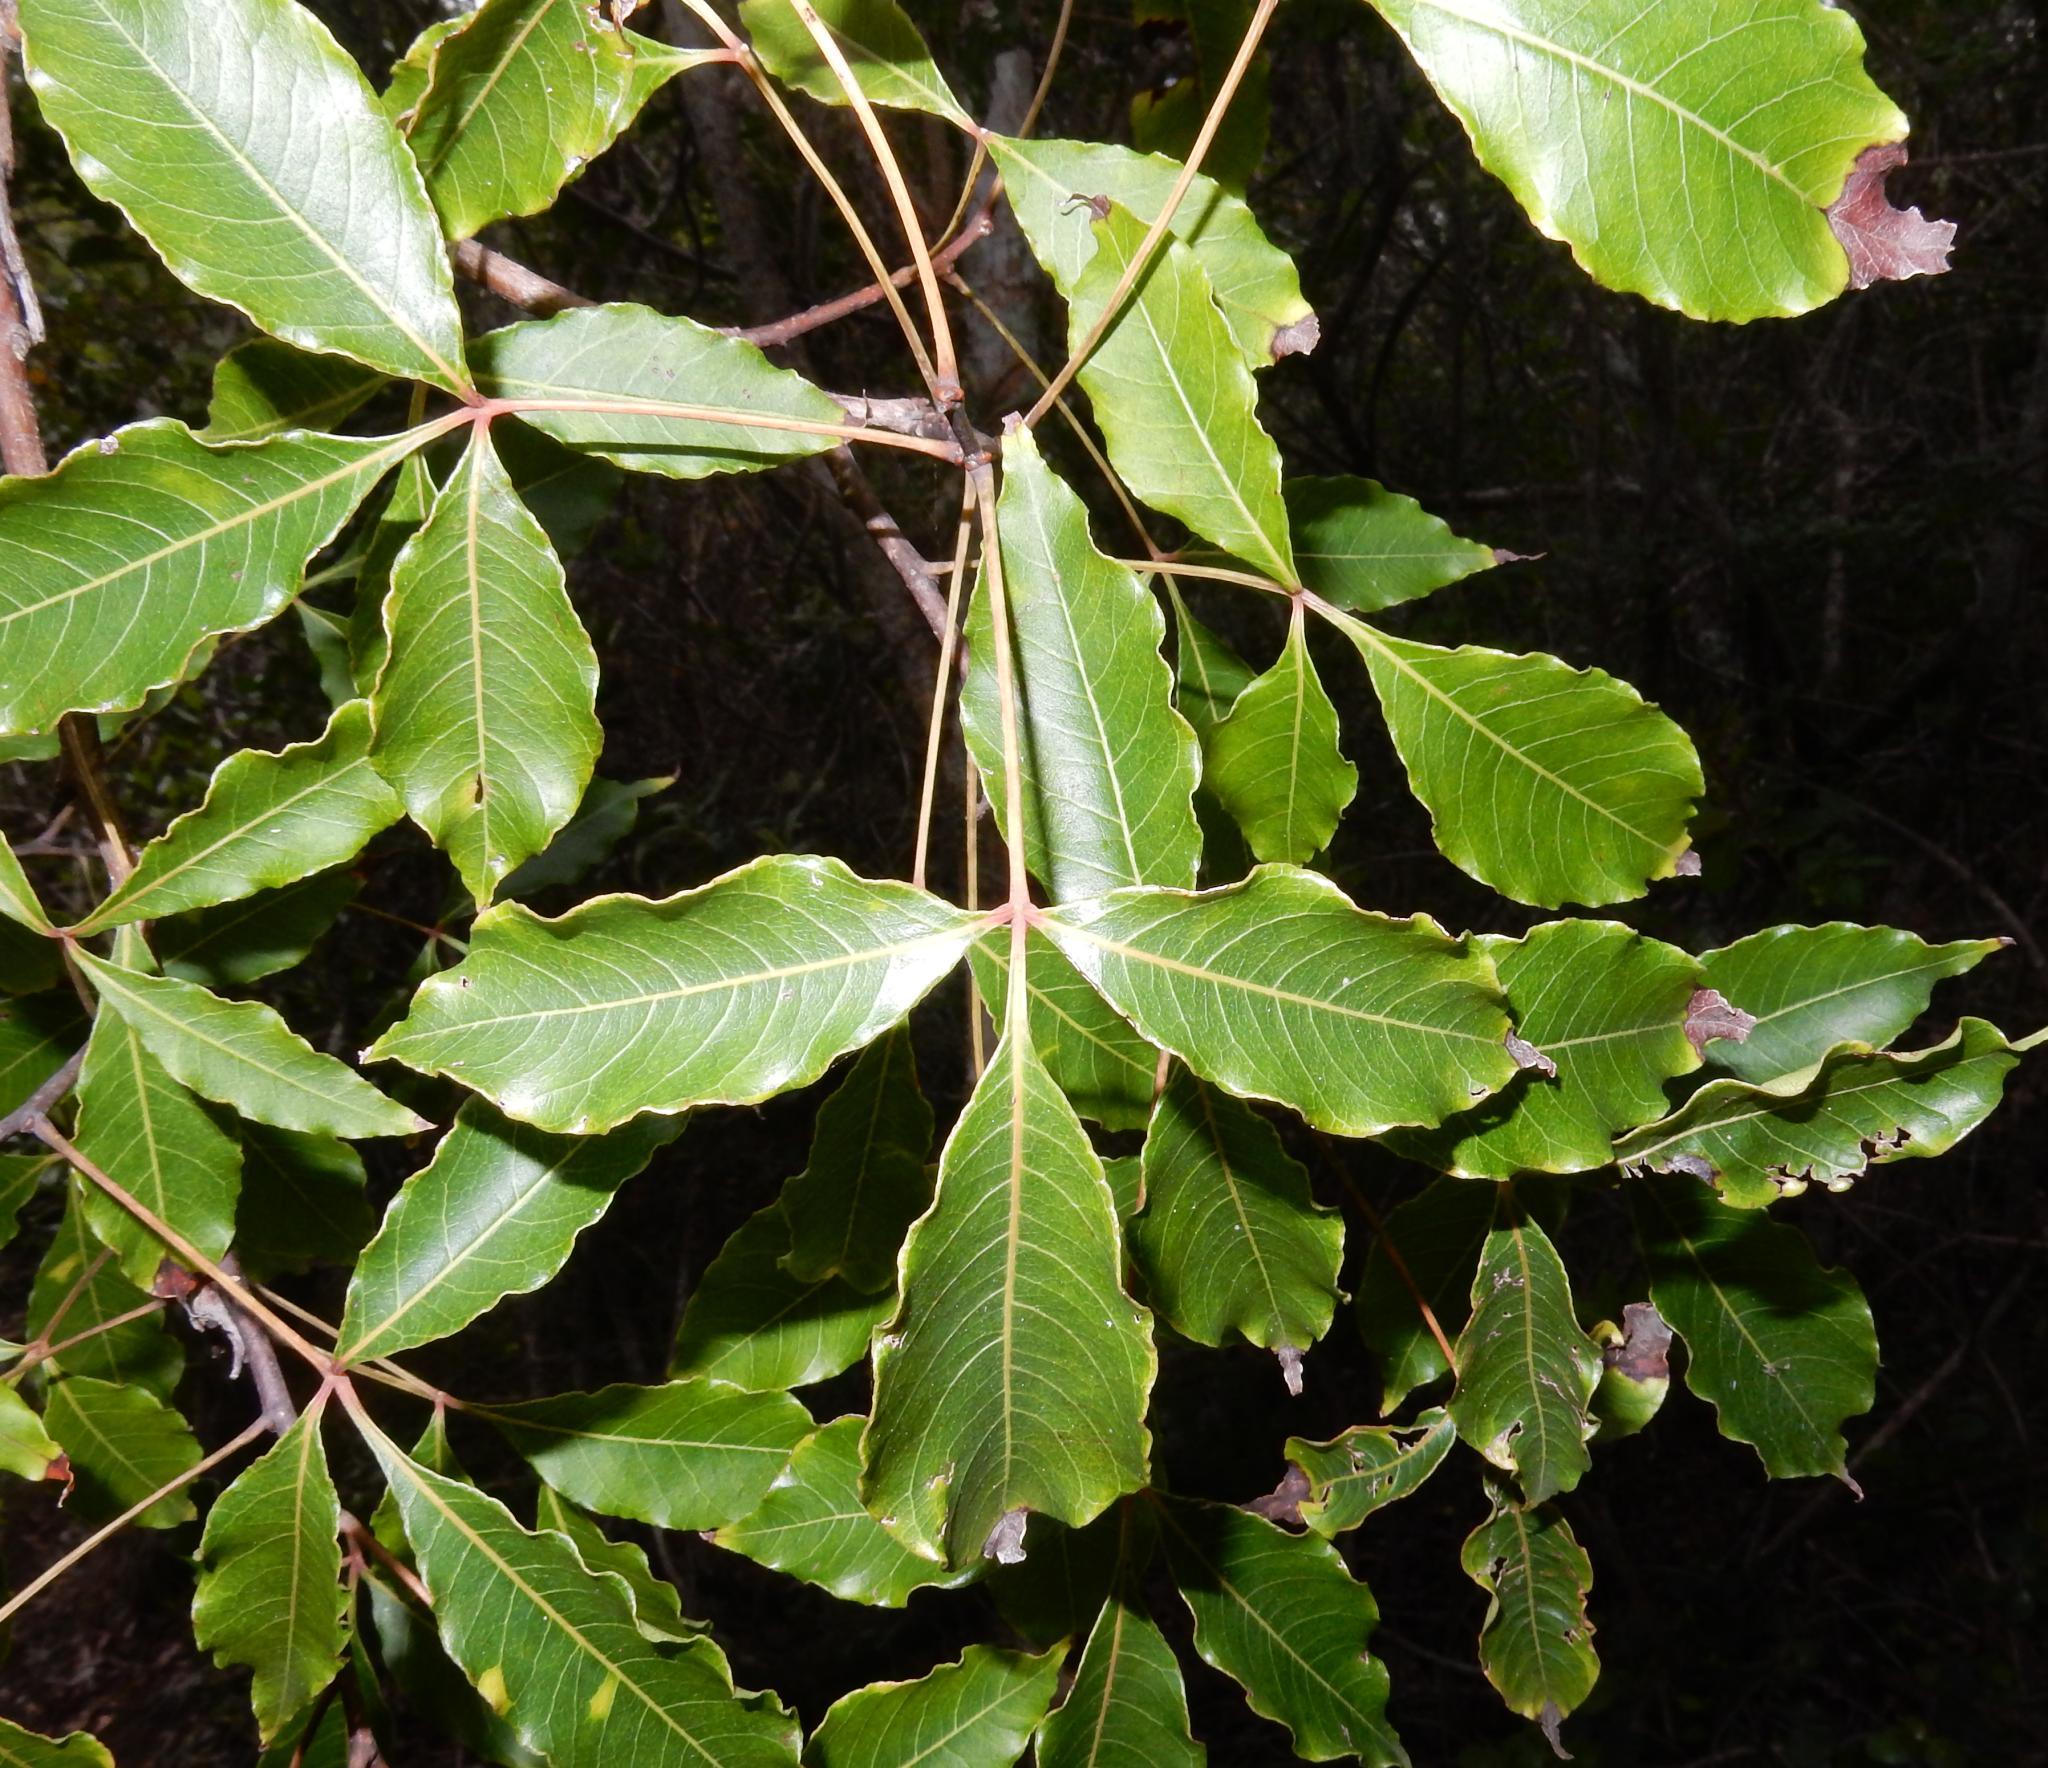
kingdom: Plantae
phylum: Tracheophyta
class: Magnoliopsida
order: Sapindales
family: Anacardiaceae
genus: Searsia
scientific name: Searsia chirindensis
